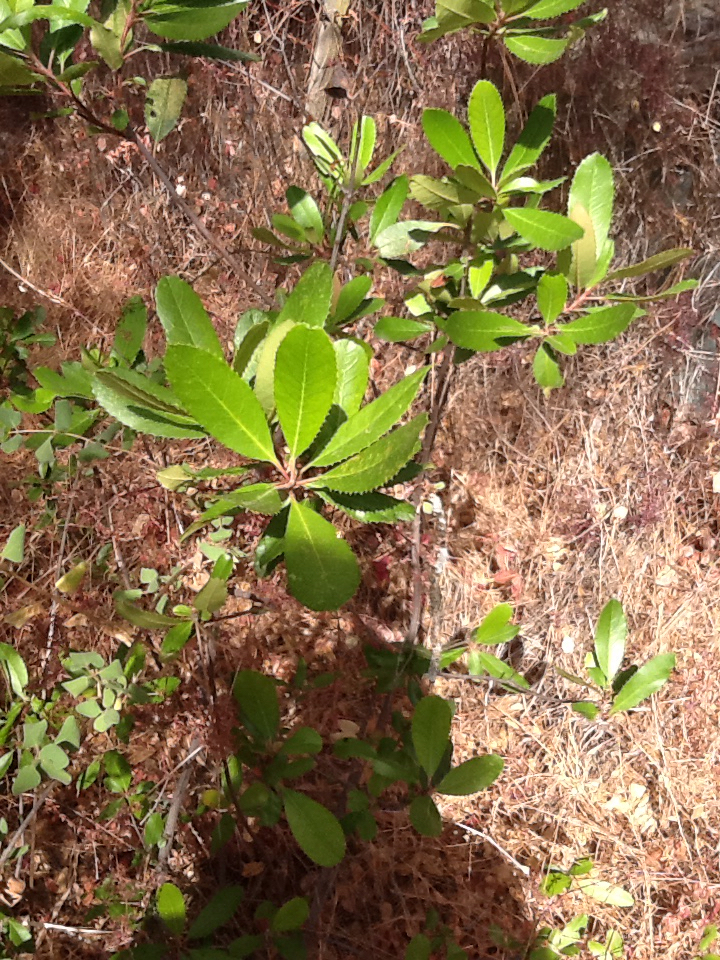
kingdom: Plantae
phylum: Tracheophyta
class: Magnoliopsida
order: Rosales
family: Rosaceae
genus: Heteromeles
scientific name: Heteromeles arbutifolia
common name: California-holly
